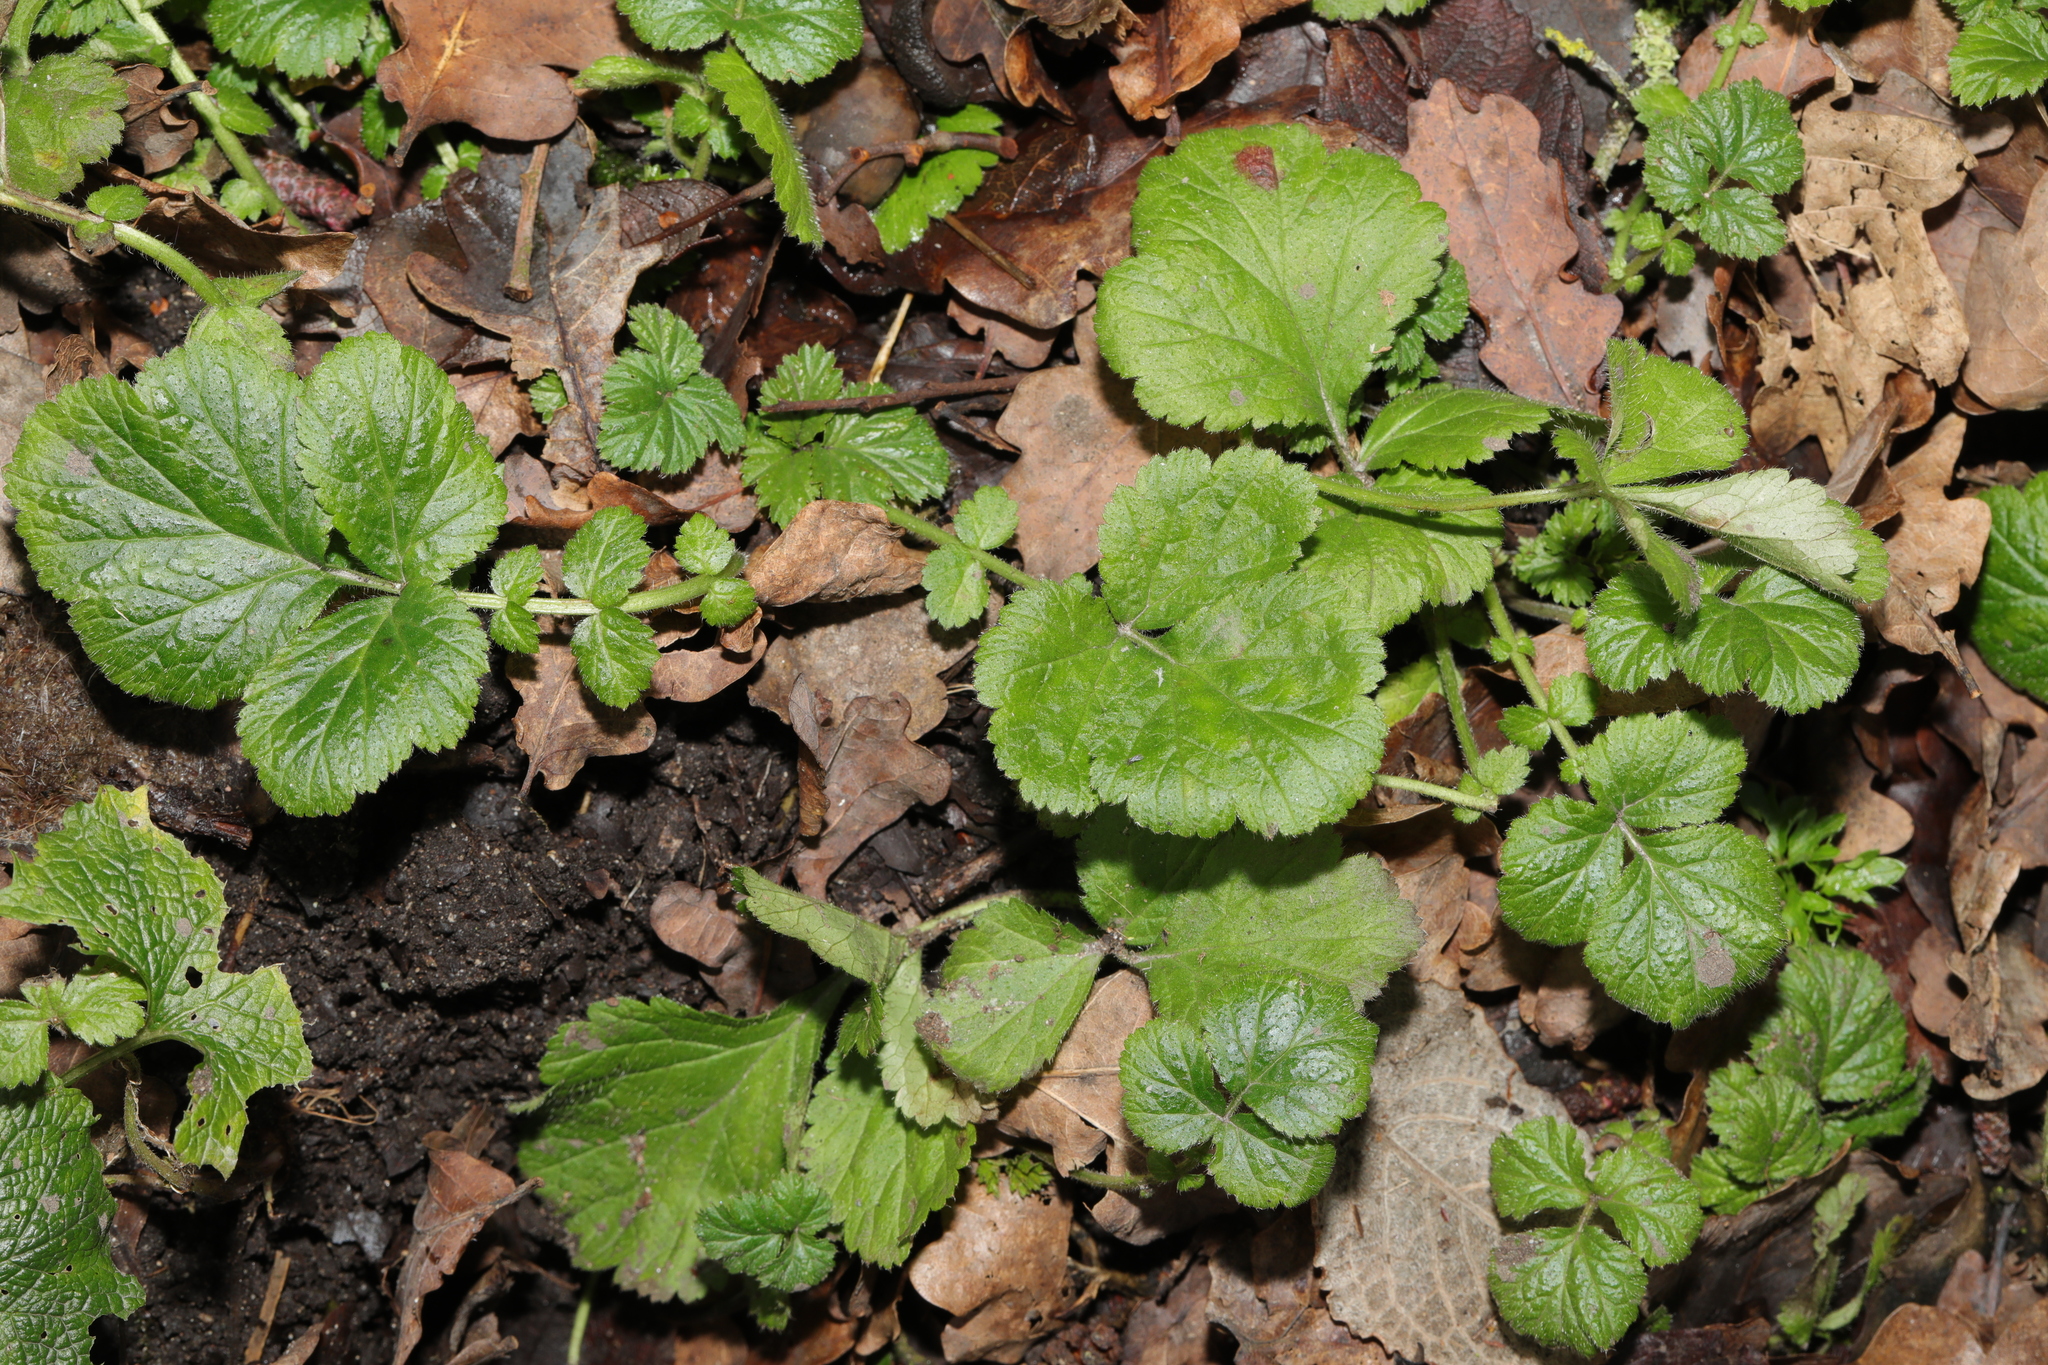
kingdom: Plantae
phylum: Tracheophyta
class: Magnoliopsida
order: Rosales
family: Rosaceae
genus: Geum
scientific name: Geum urbanum
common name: Wood avens
